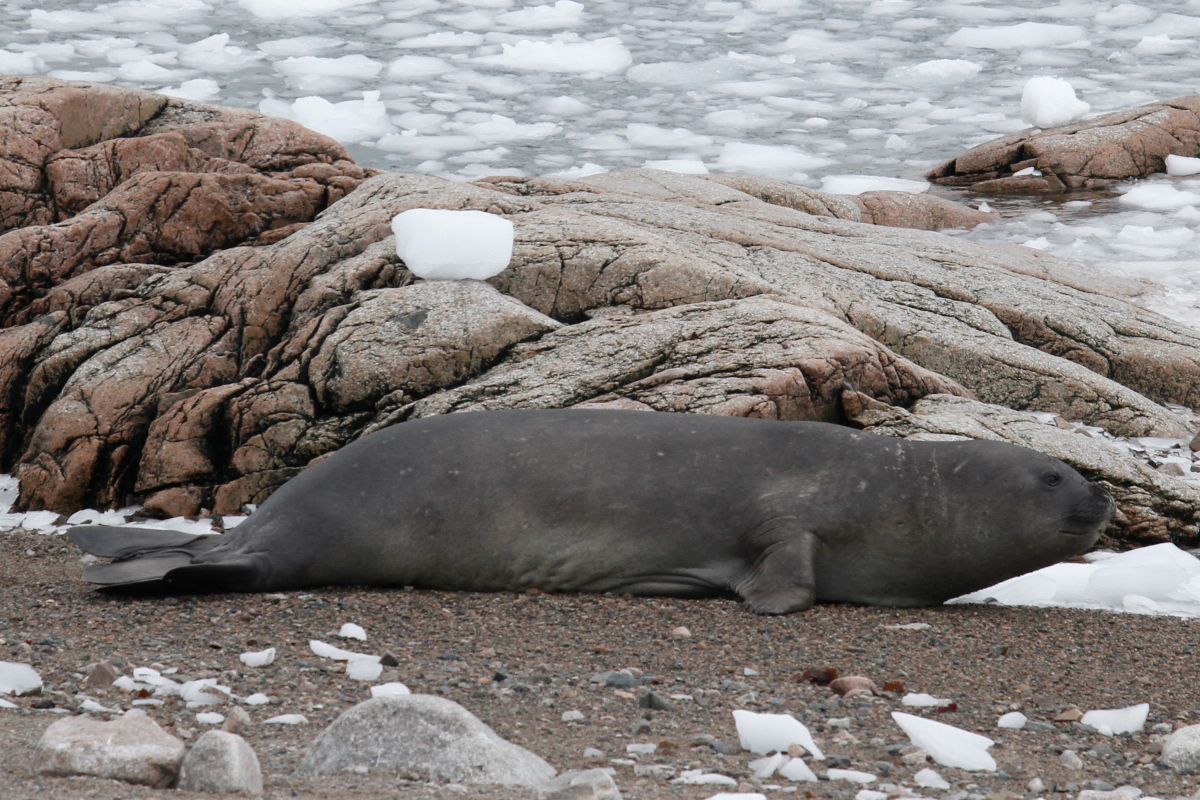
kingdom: Animalia
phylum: Chordata
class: Mammalia
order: Carnivora
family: Phocidae
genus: Mirounga
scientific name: Mirounga leonina
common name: Southern elephant seal
